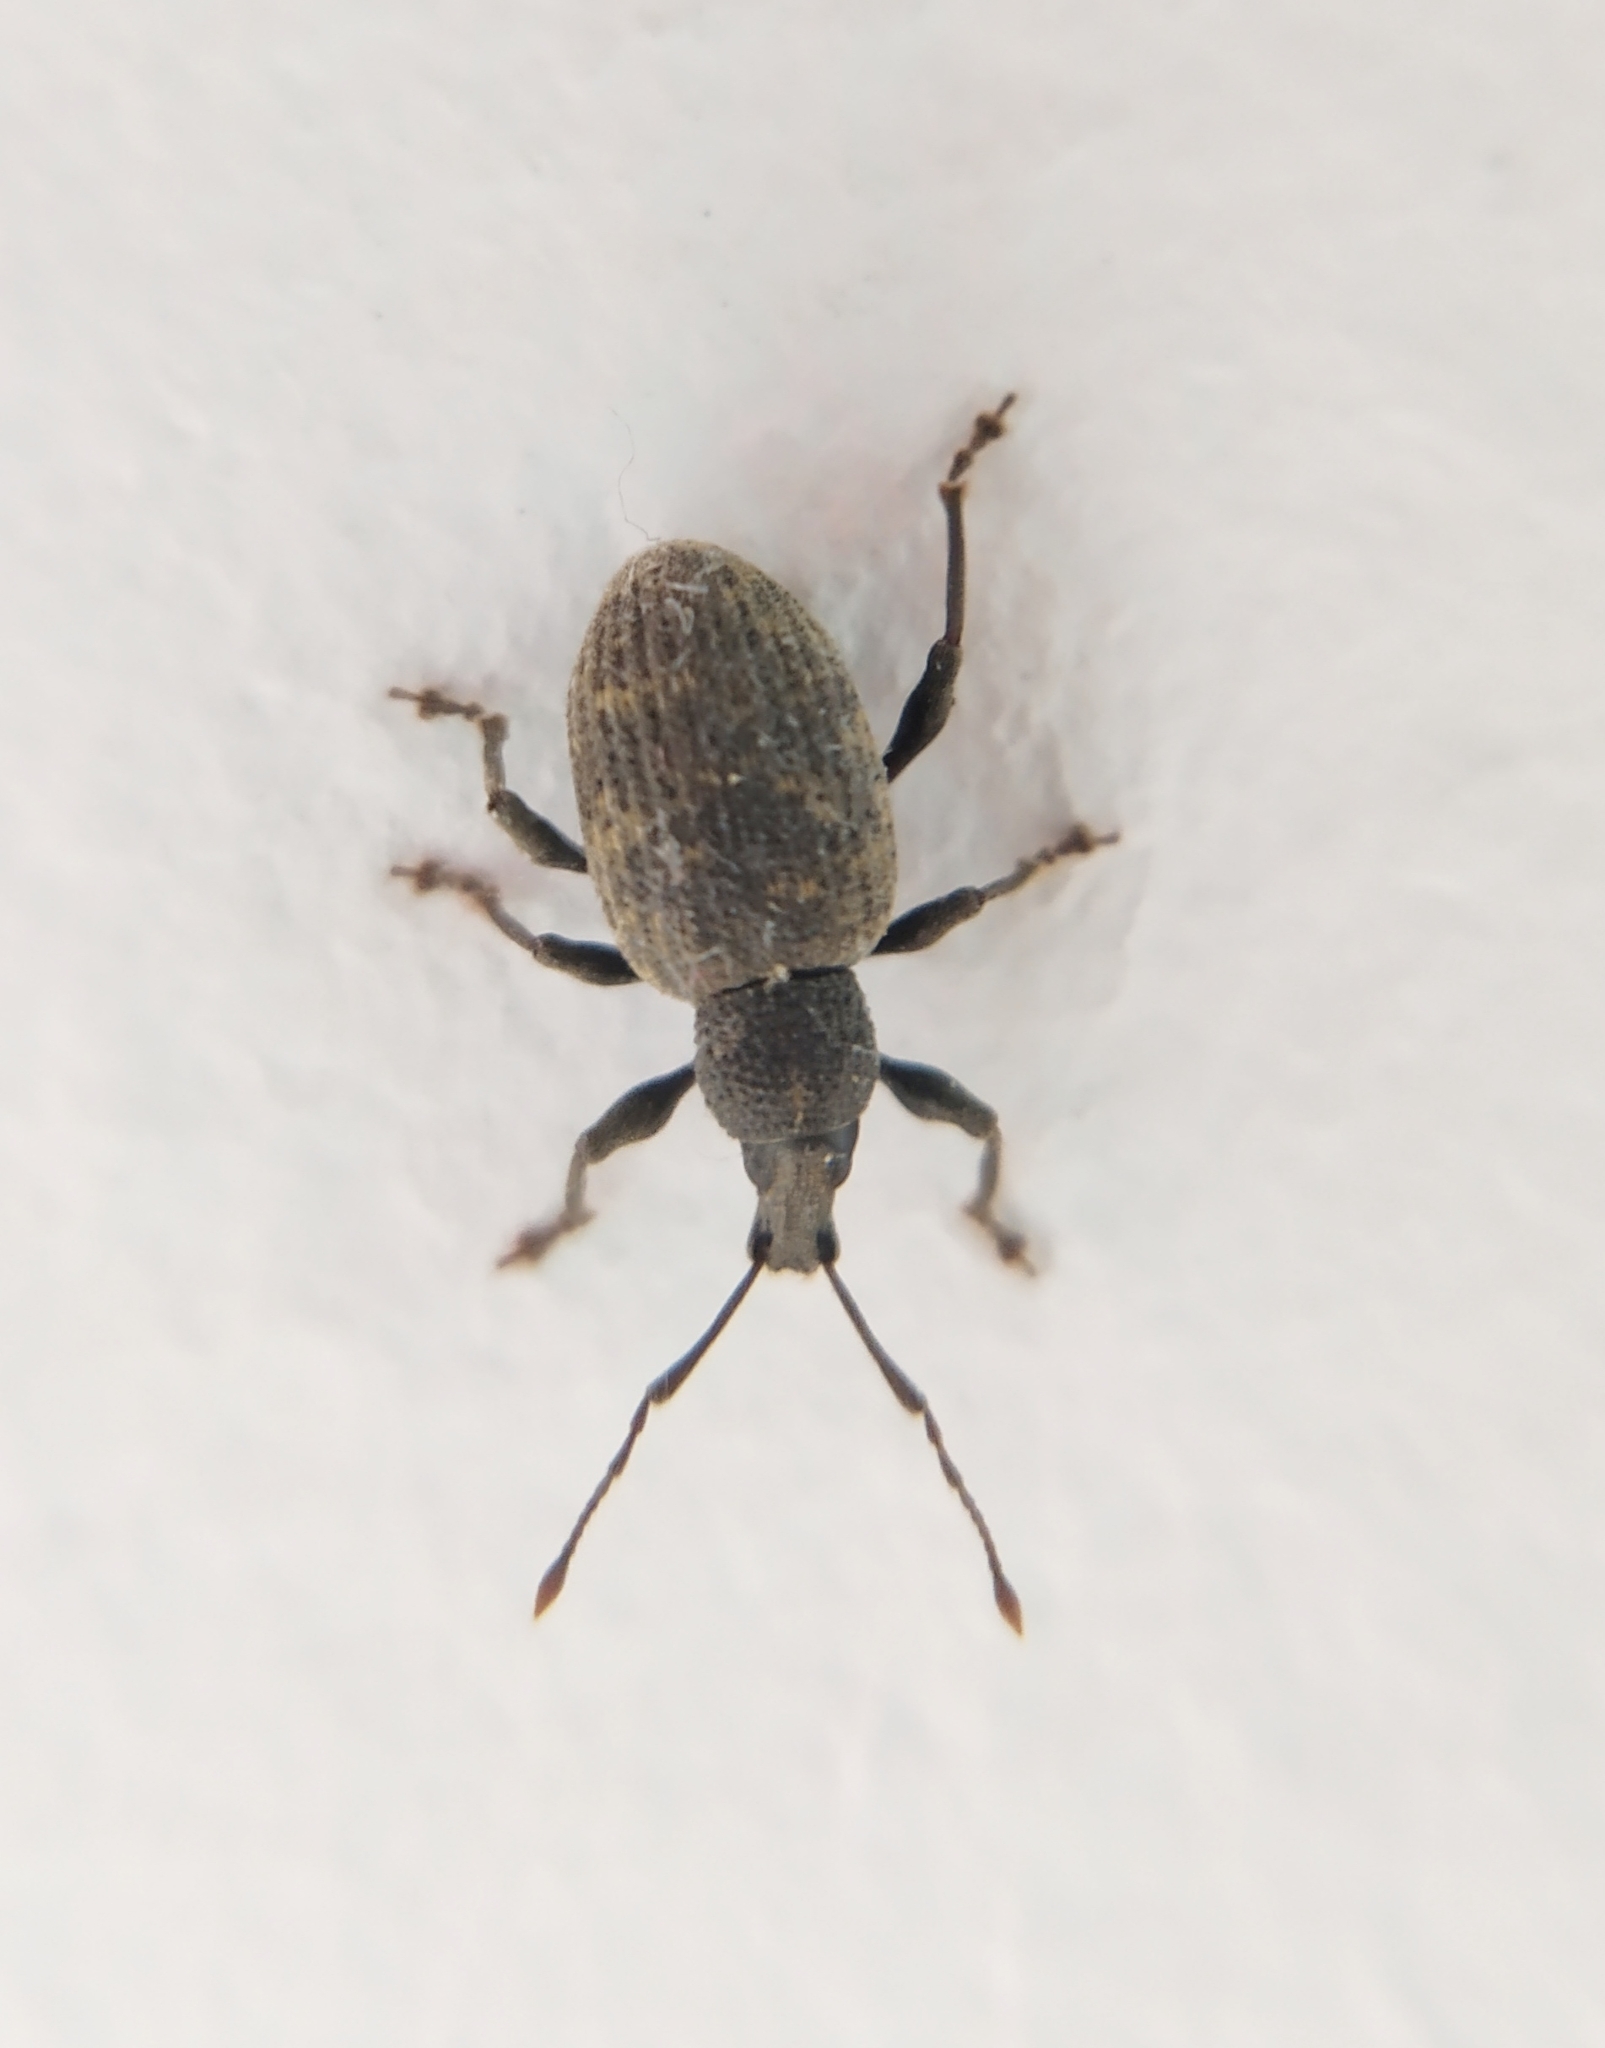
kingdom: Animalia
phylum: Arthropoda
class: Insecta
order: Coleoptera
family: Curculionidae
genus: Otiorhynchus
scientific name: Otiorhynchus sulcatus
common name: Black vine weevil
